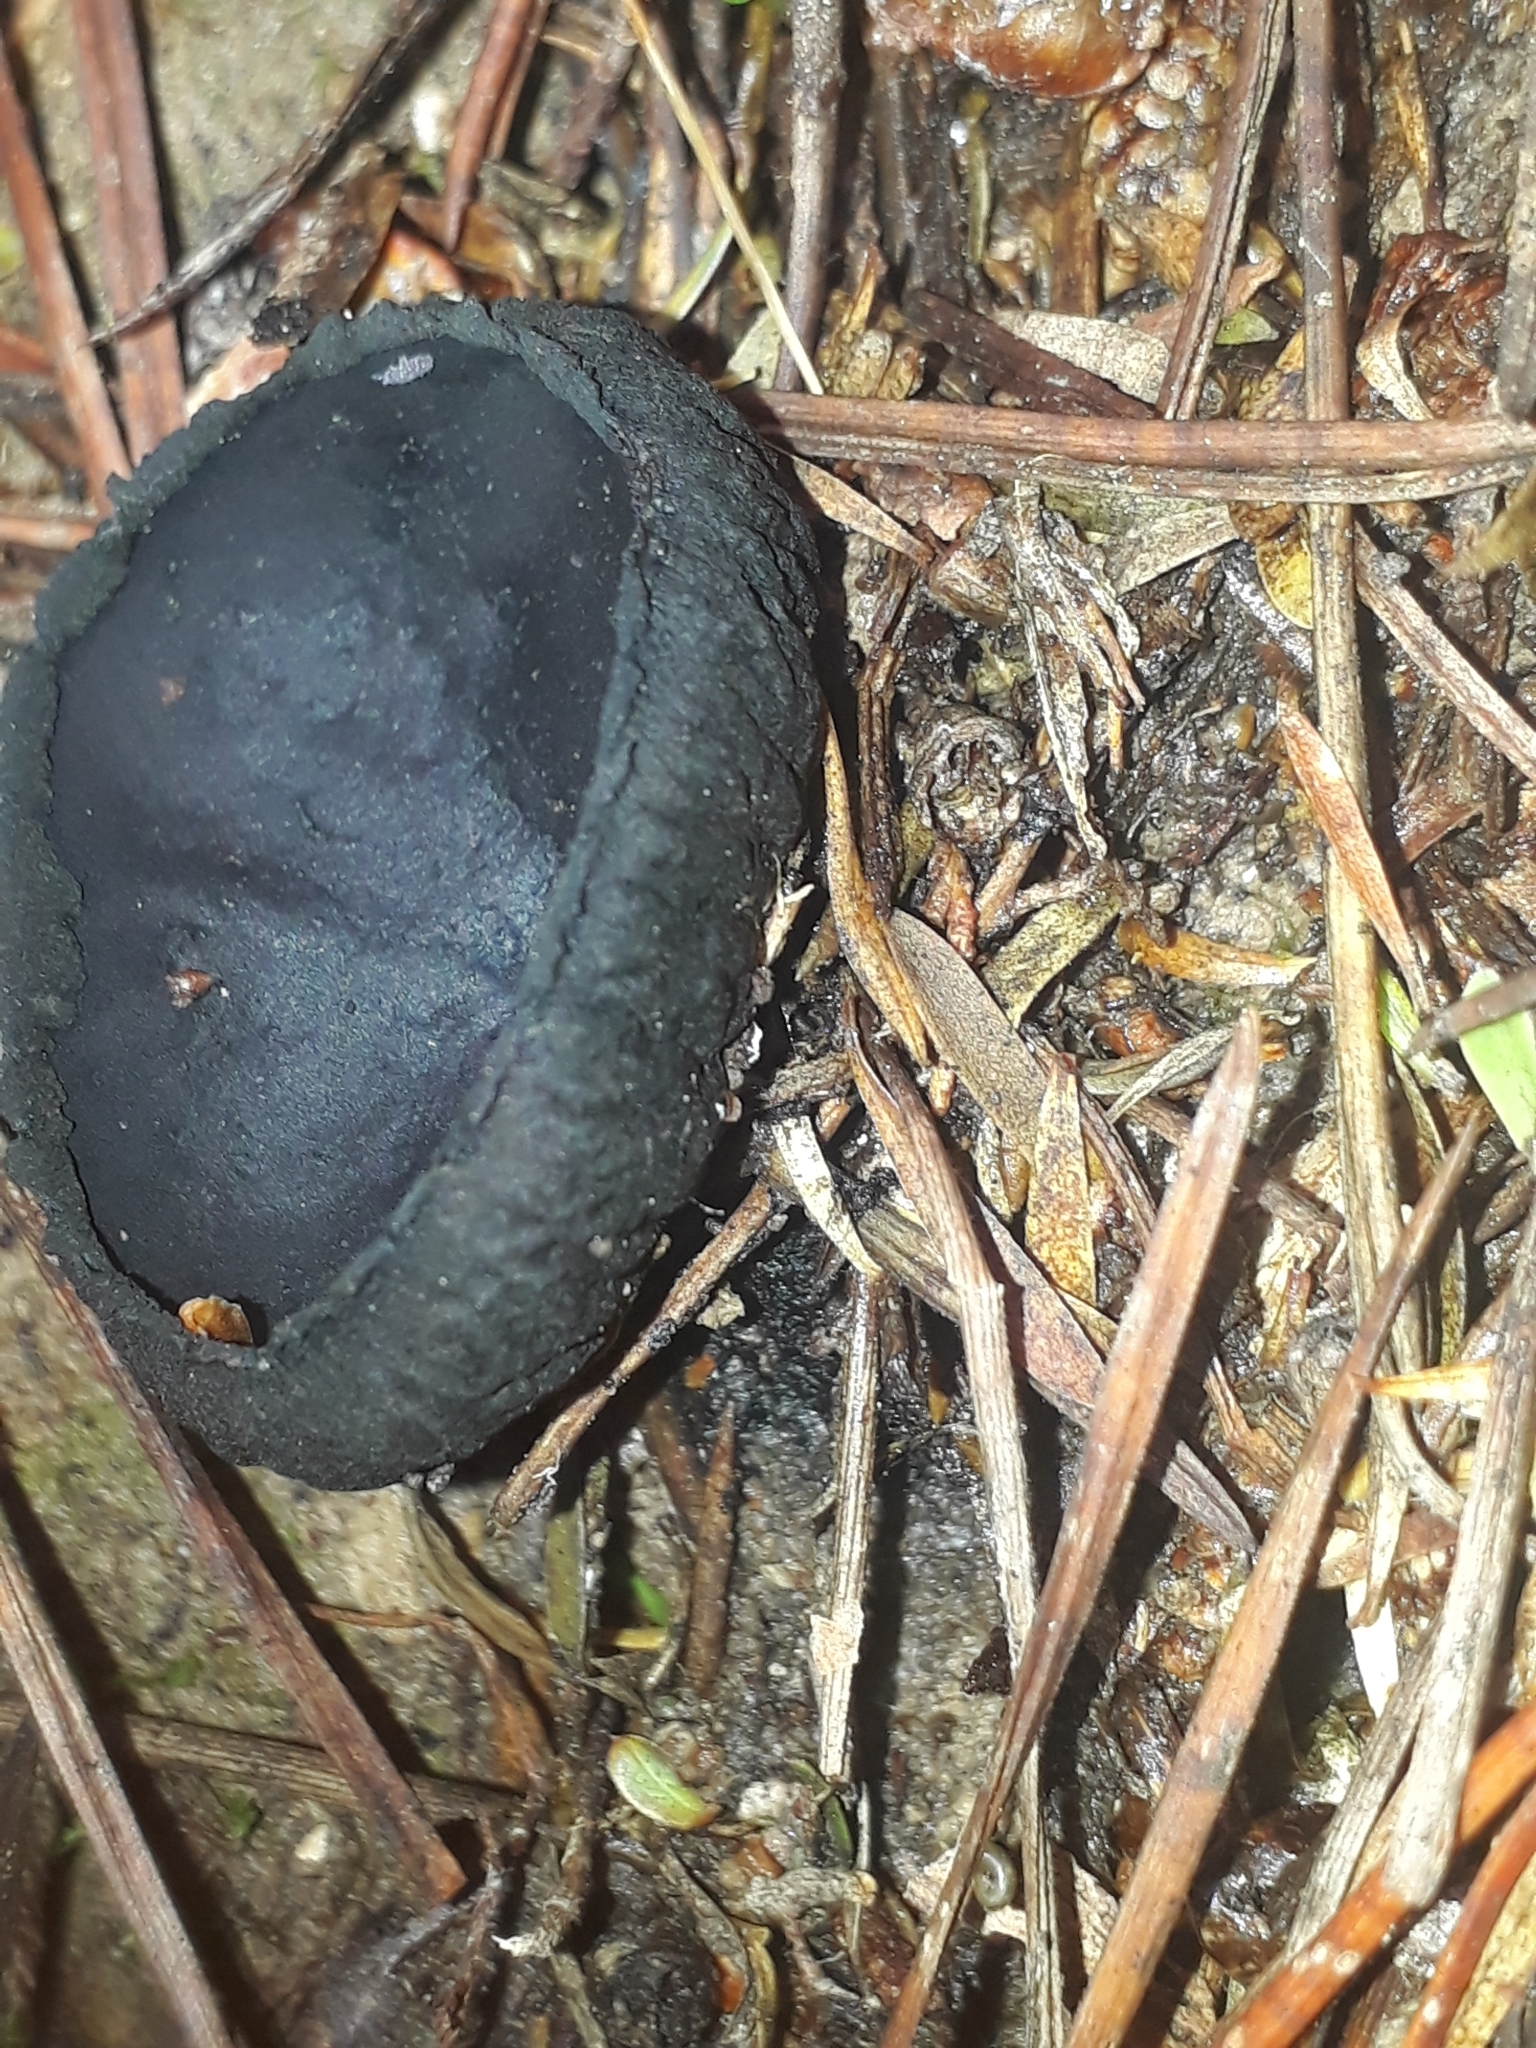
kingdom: Fungi
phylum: Ascomycota
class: Pezizomycetes
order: Pezizales
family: Sarcosomataceae
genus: Plectania
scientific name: Plectania rhytidia
